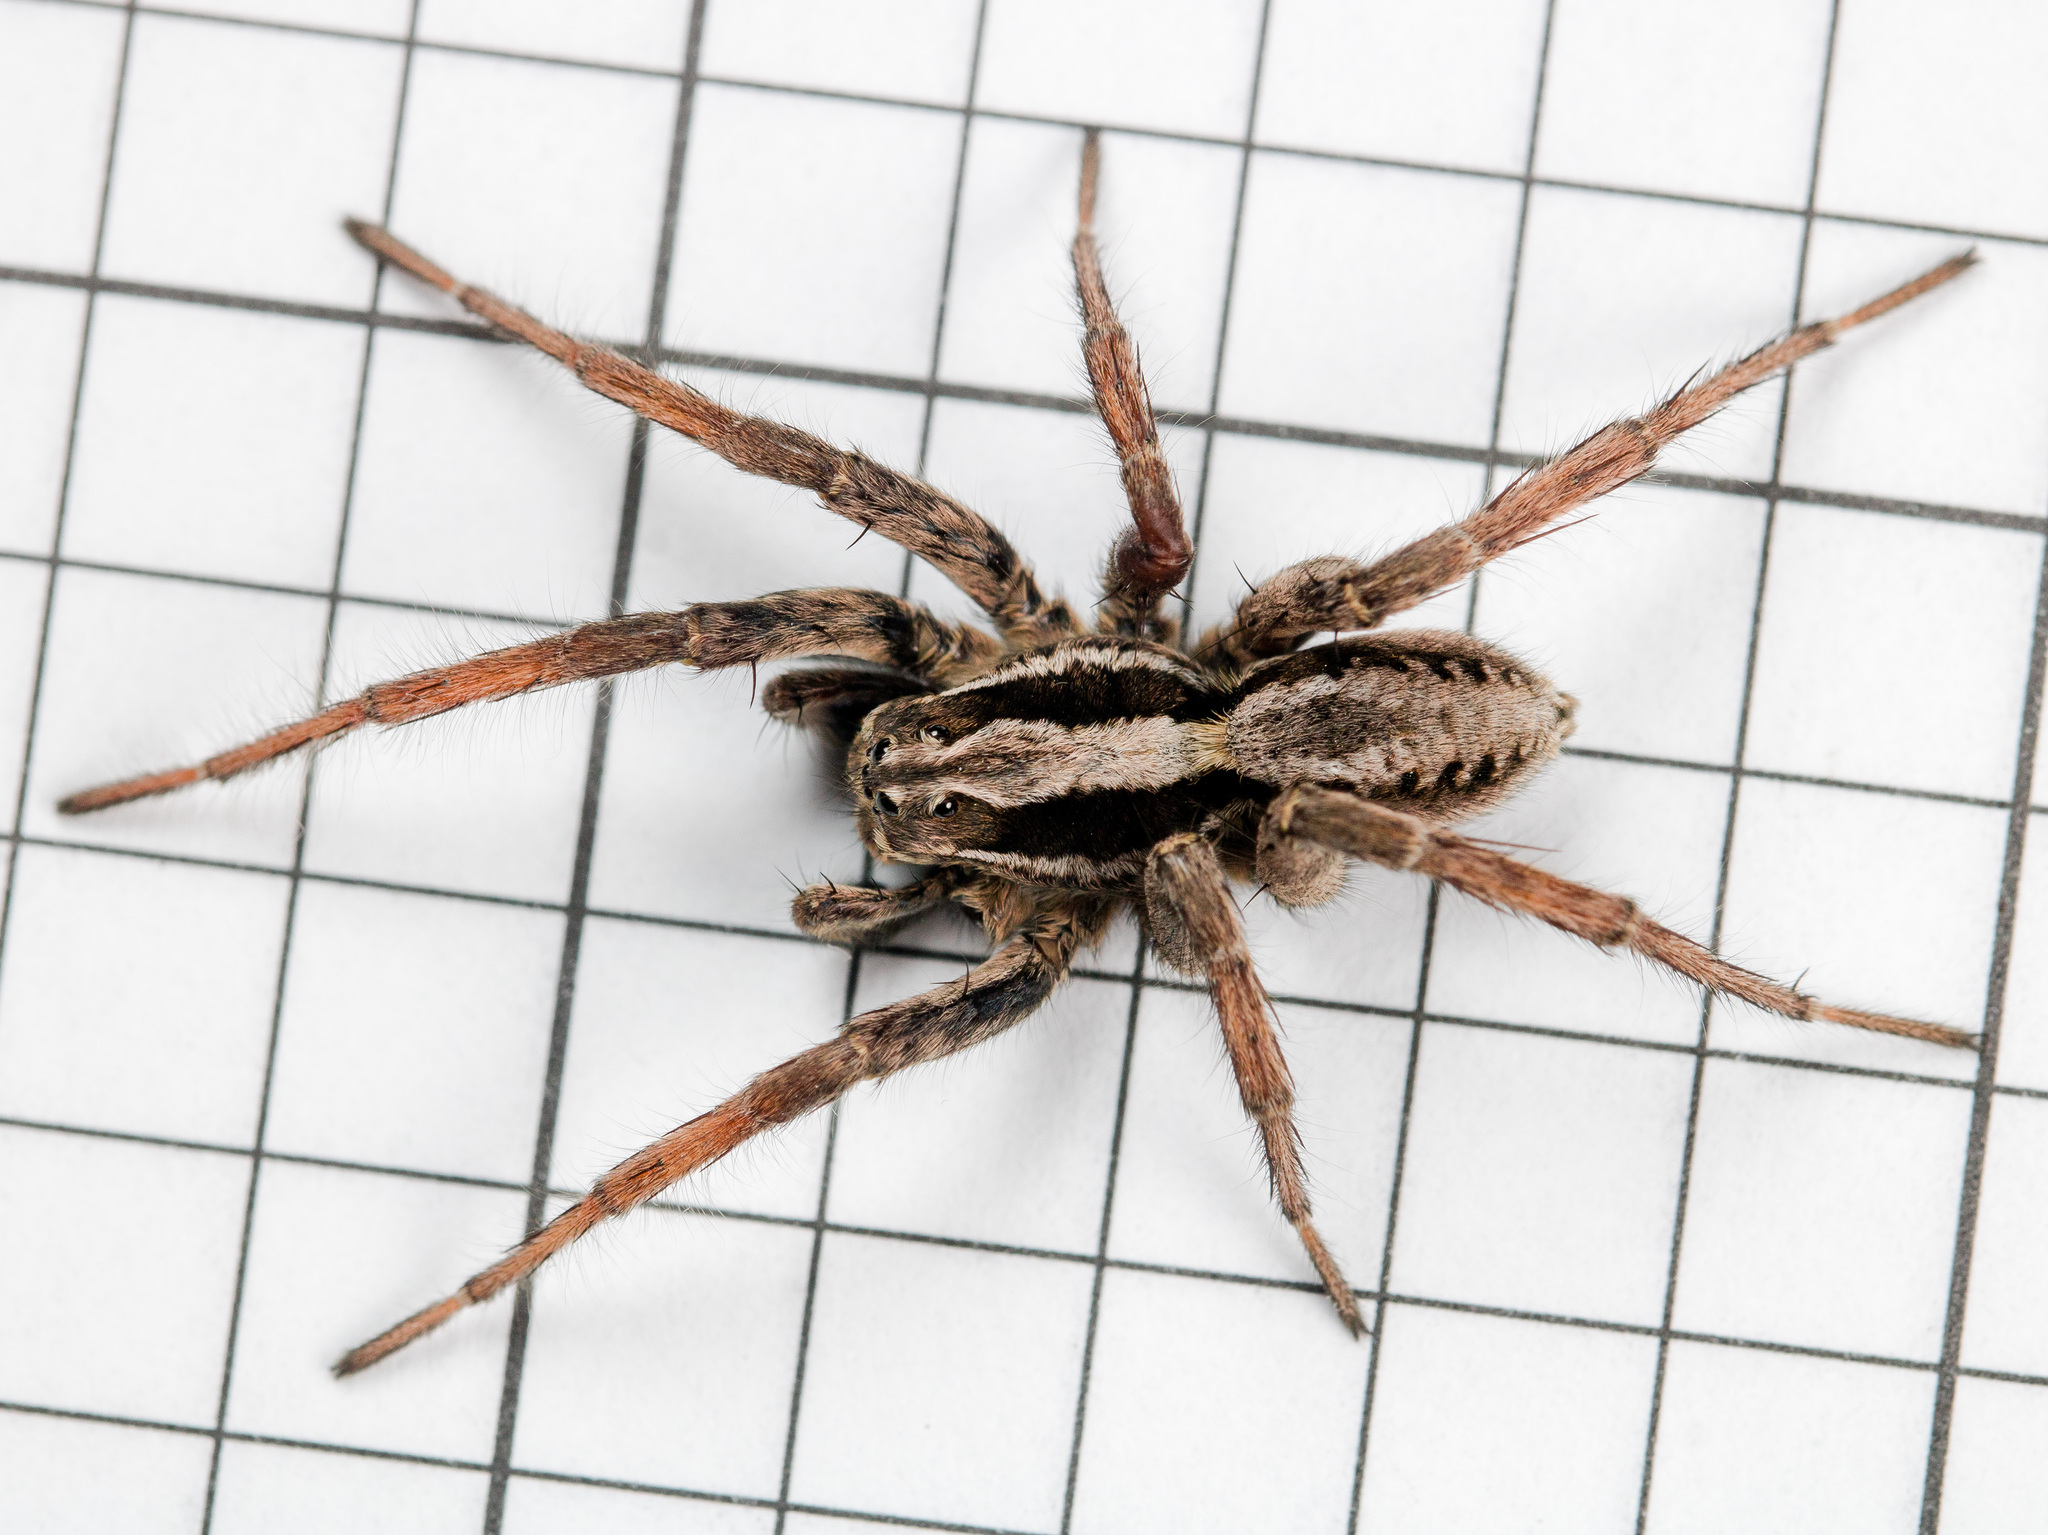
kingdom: Animalia
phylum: Arthropoda
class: Arachnida
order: Araneae
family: Lycosidae
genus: Alopecosa
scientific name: Alopecosa fedotovi
